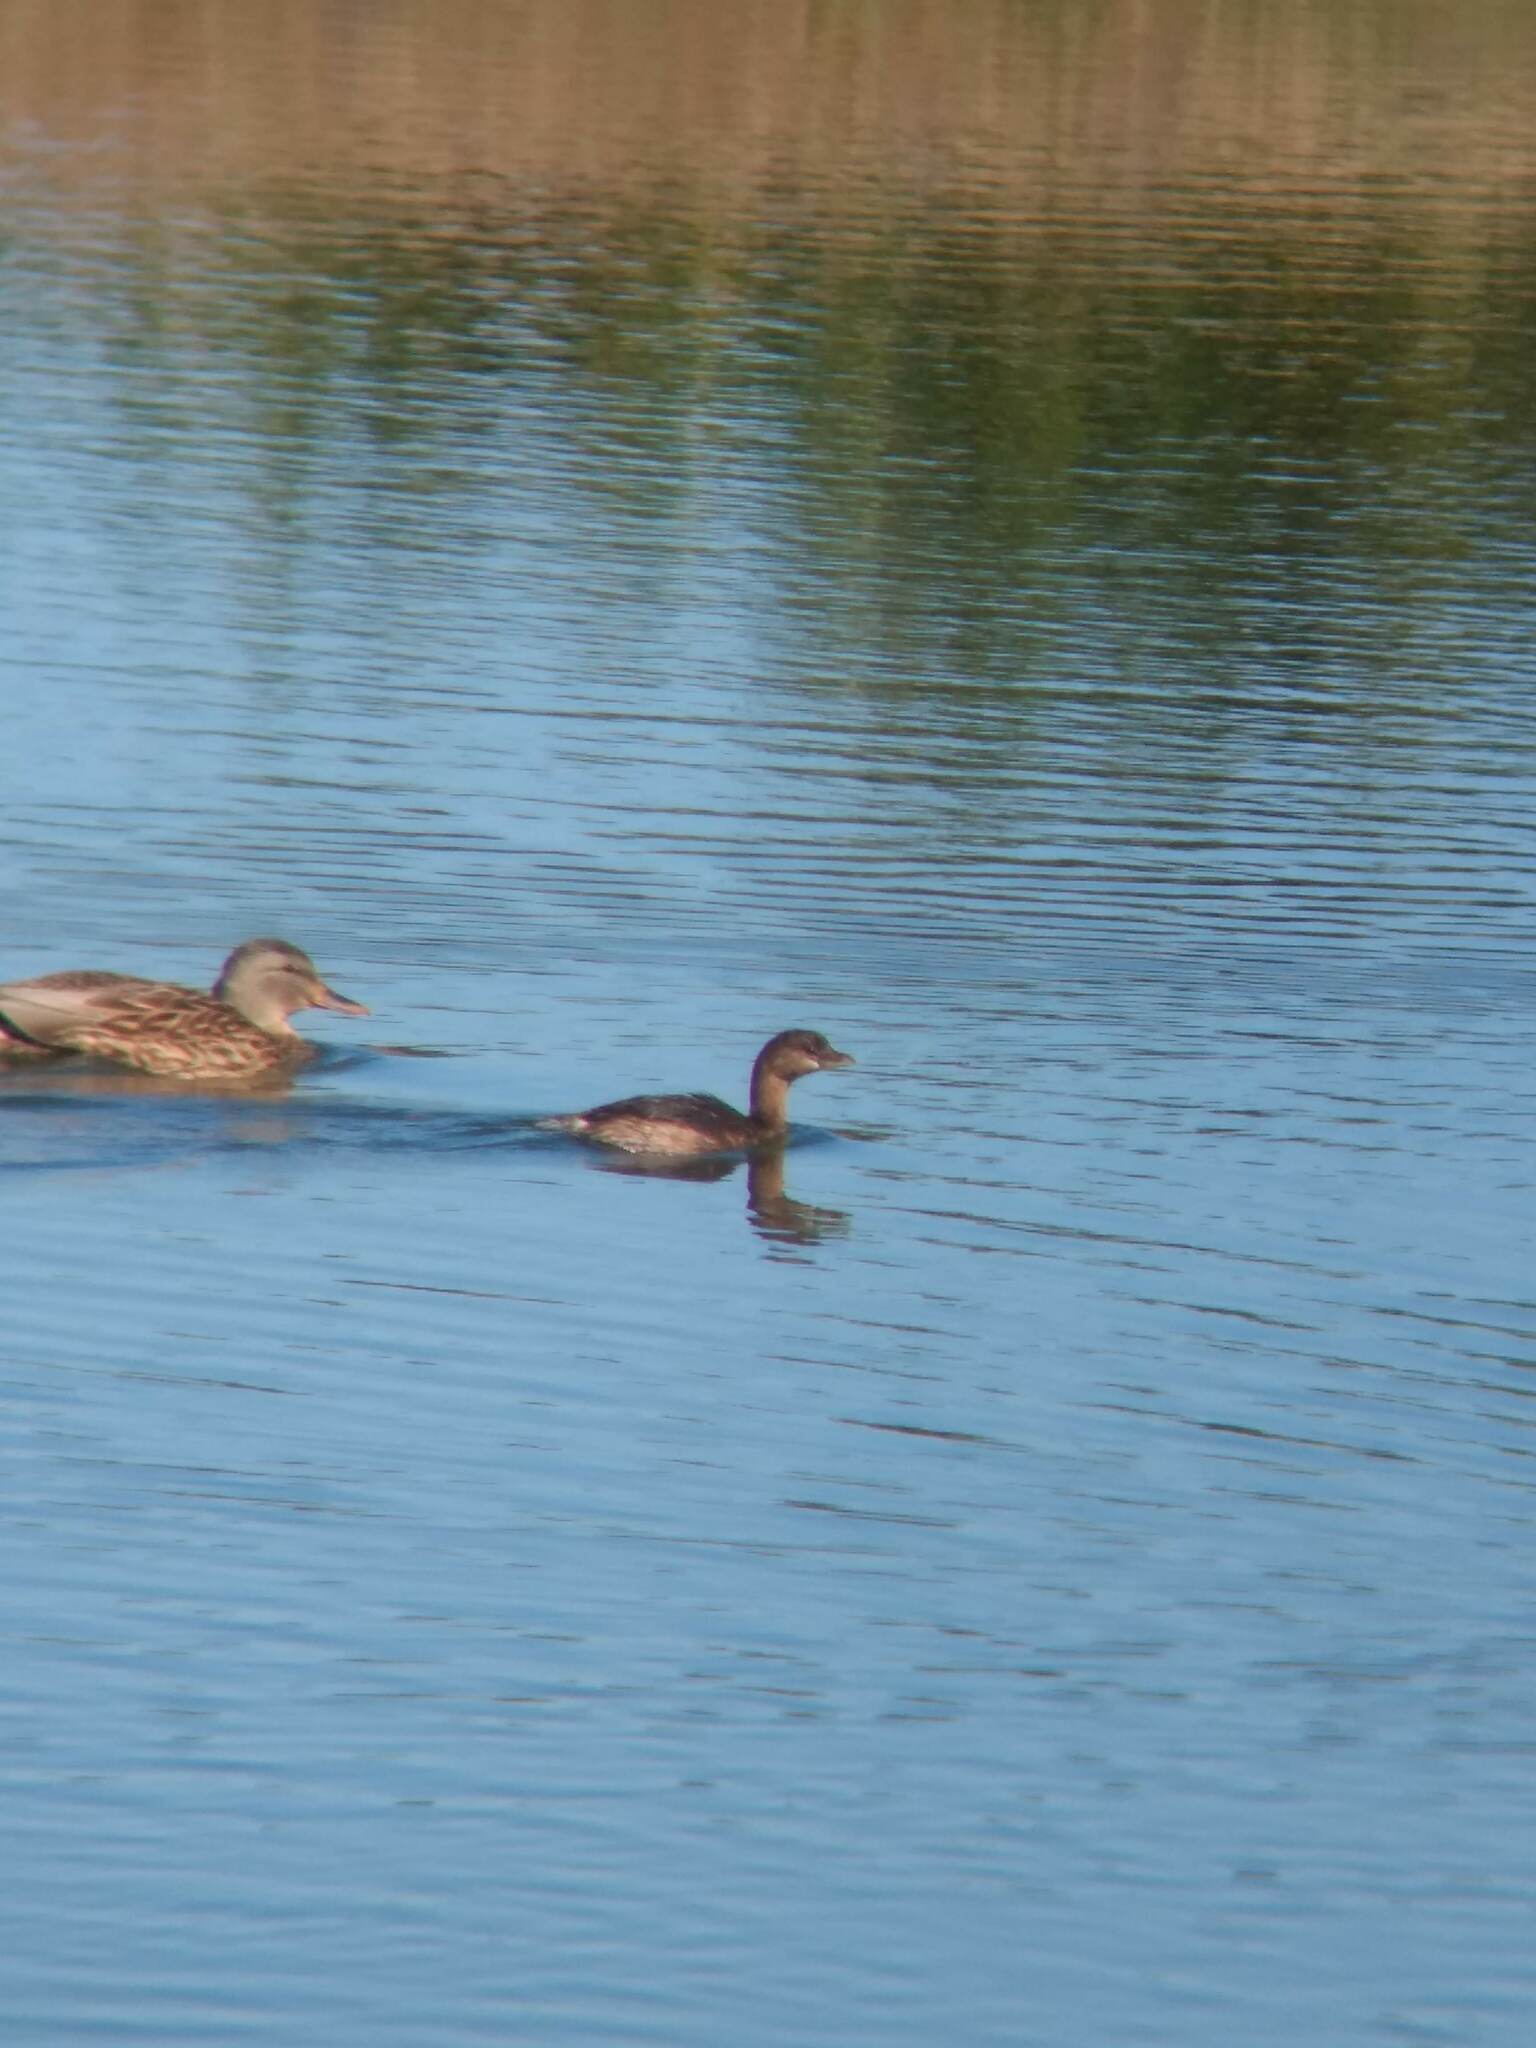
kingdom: Animalia
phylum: Chordata
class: Aves
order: Podicipediformes
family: Podicipedidae
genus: Podilymbus
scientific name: Podilymbus podiceps
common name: Pied-billed grebe
